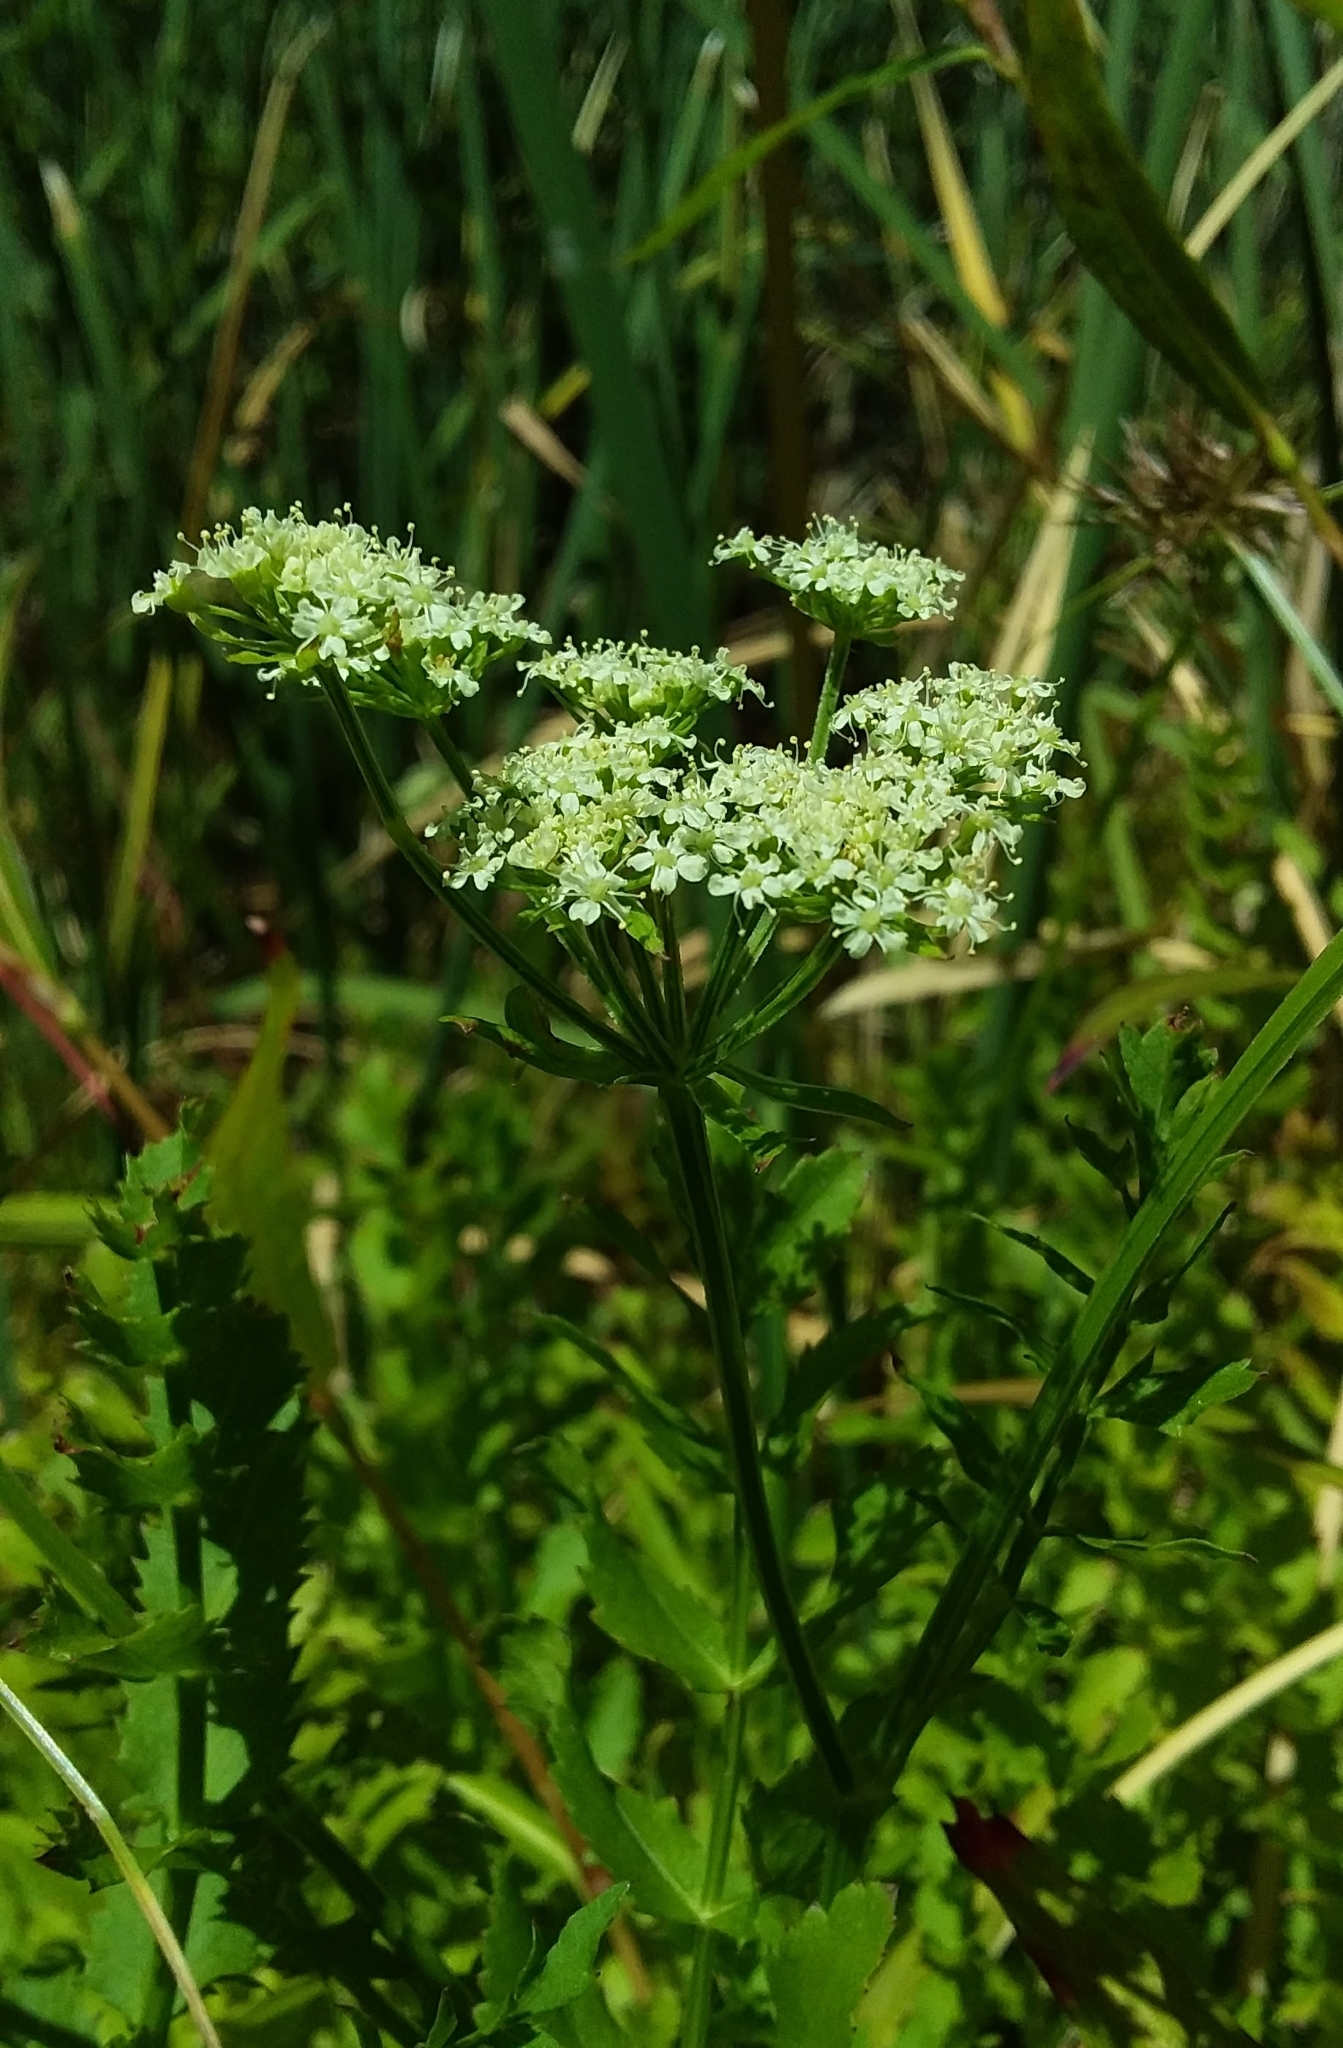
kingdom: Plantae
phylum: Tracheophyta
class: Magnoliopsida
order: Apiales
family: Apiaceae
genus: Berula
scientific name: Berula erecta
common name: Lesser water-parsnip
